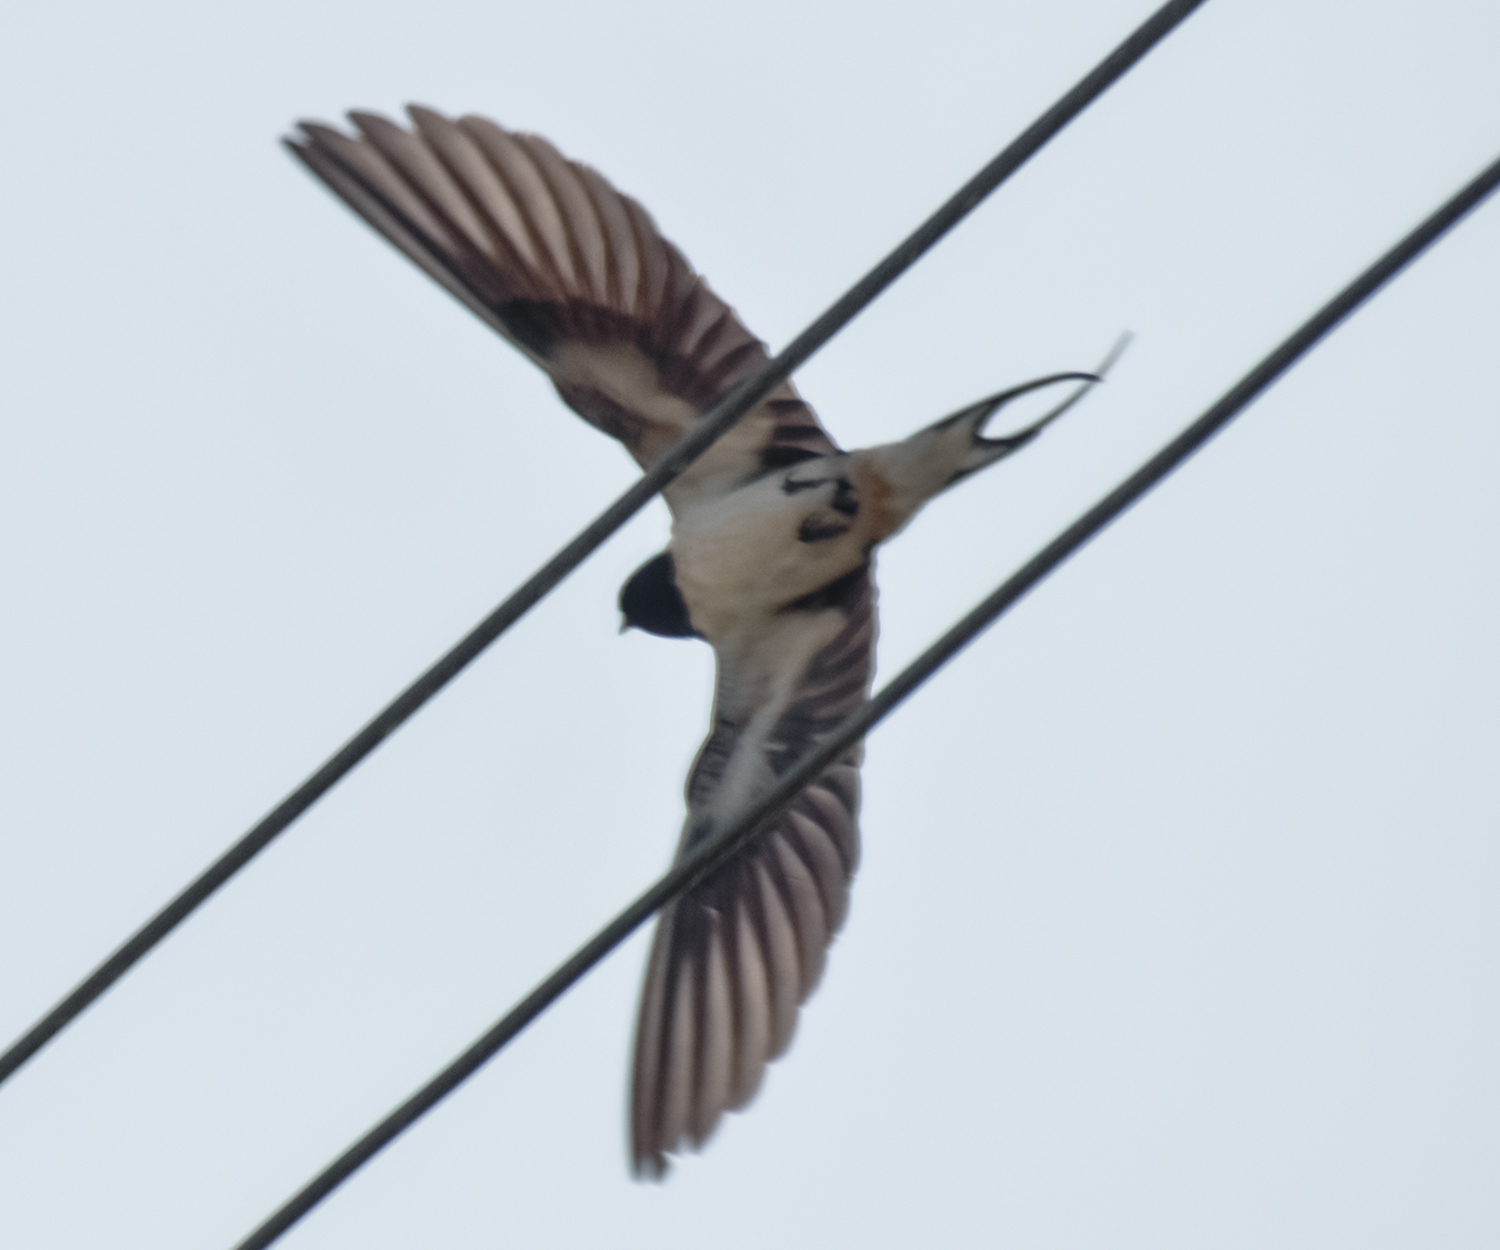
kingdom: Animalia
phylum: Chordata
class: Aves
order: Passeriformes
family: Hirundinidae
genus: Hirundo
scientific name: Hirundo rustica
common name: Barn swallow
